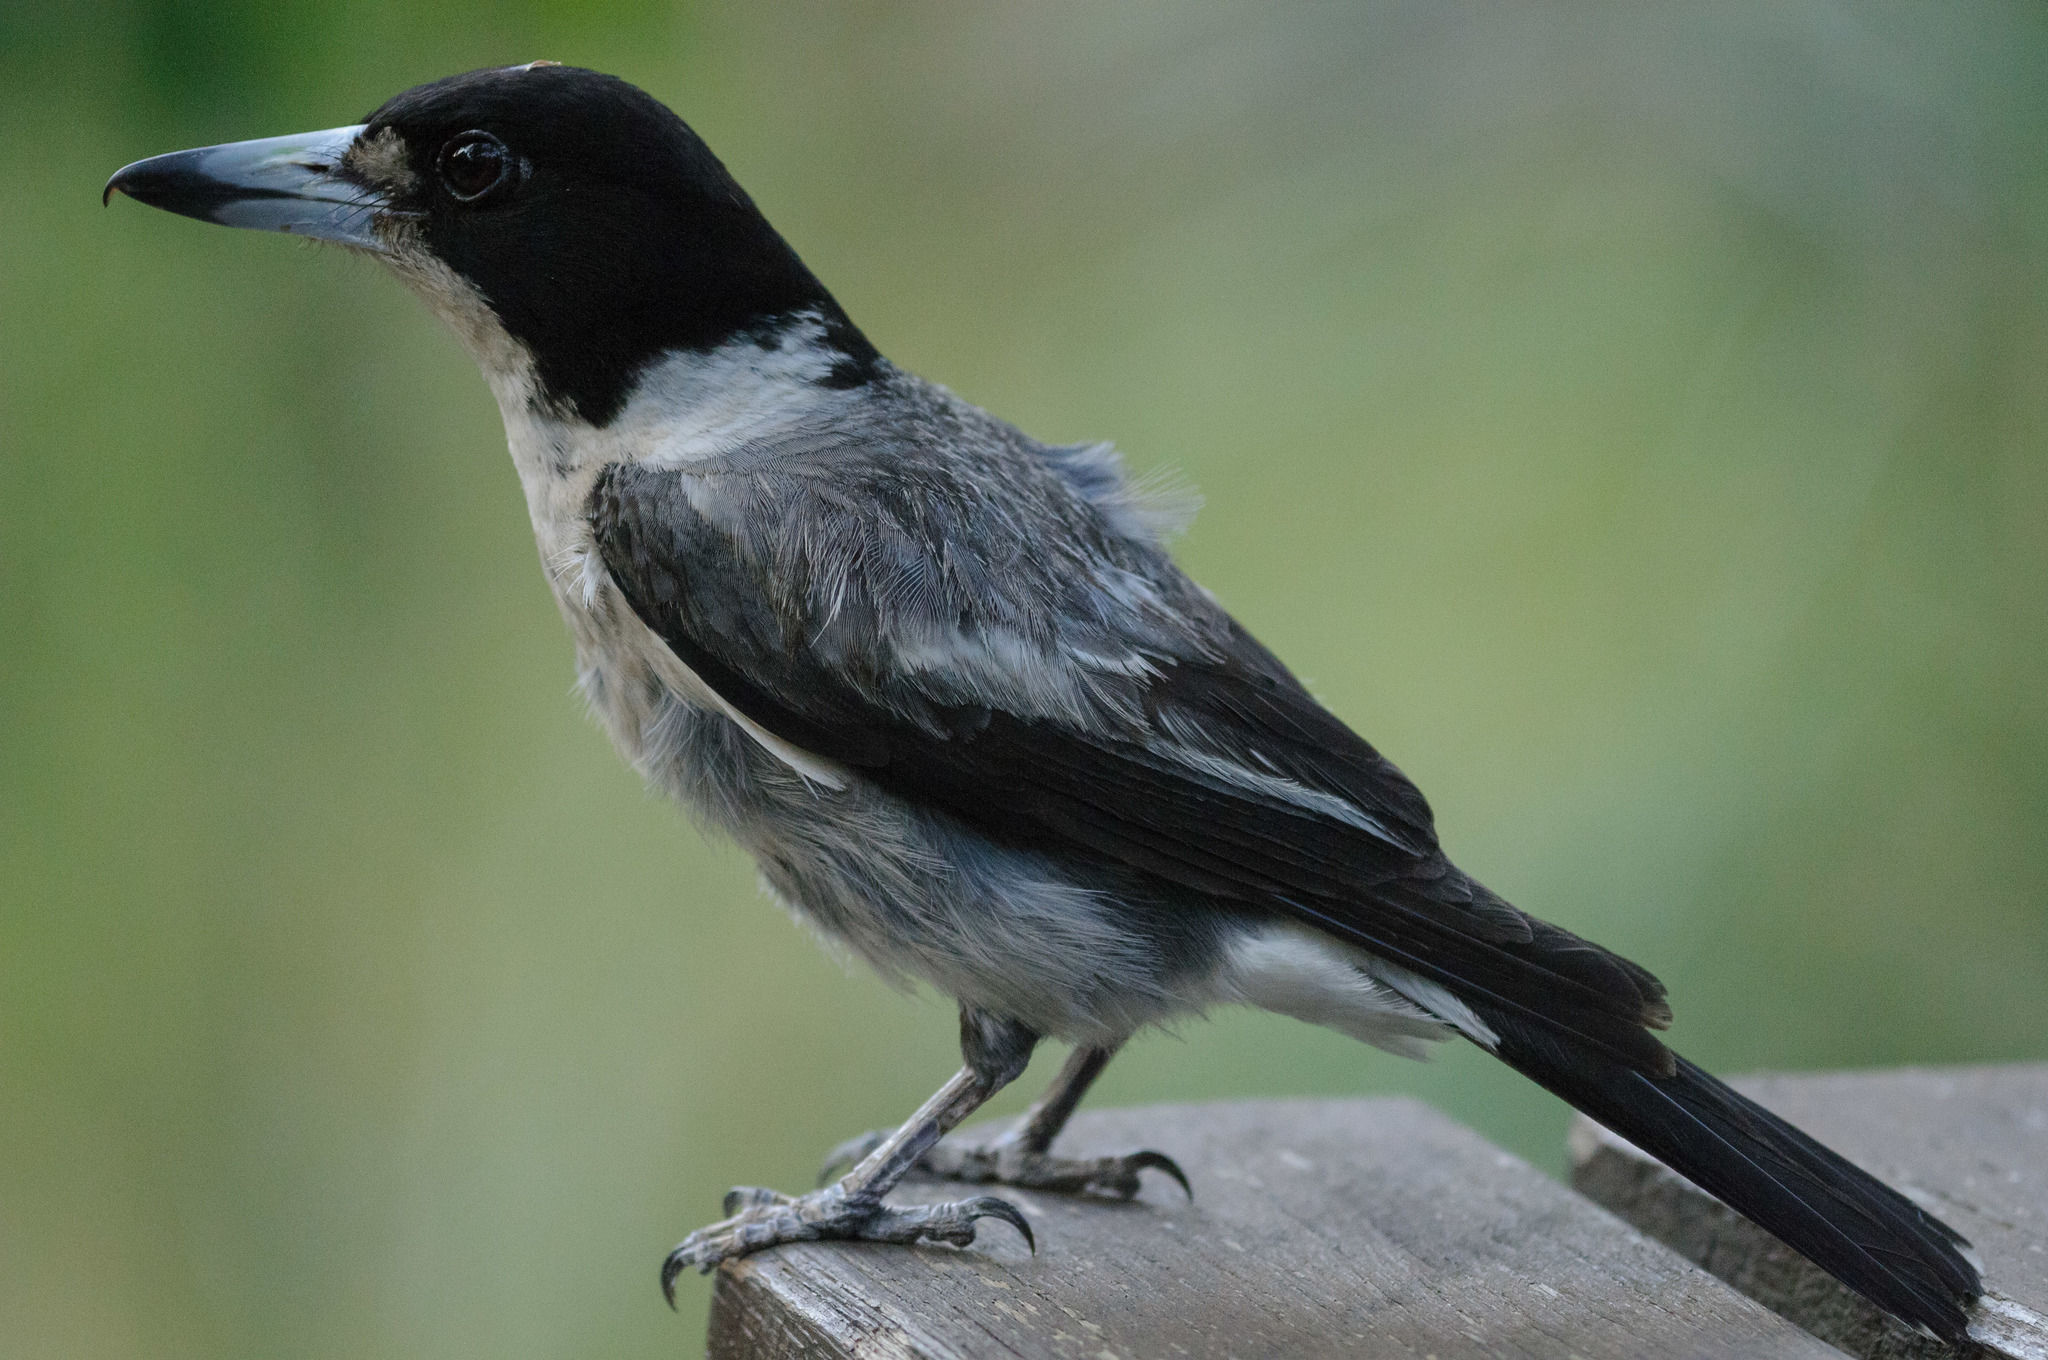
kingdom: Animalia
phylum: Chordata
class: Aves
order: Passeriformes
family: Cracticidae
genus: Cracticus
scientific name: Cracticus torquatus
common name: Grey butcherbird
